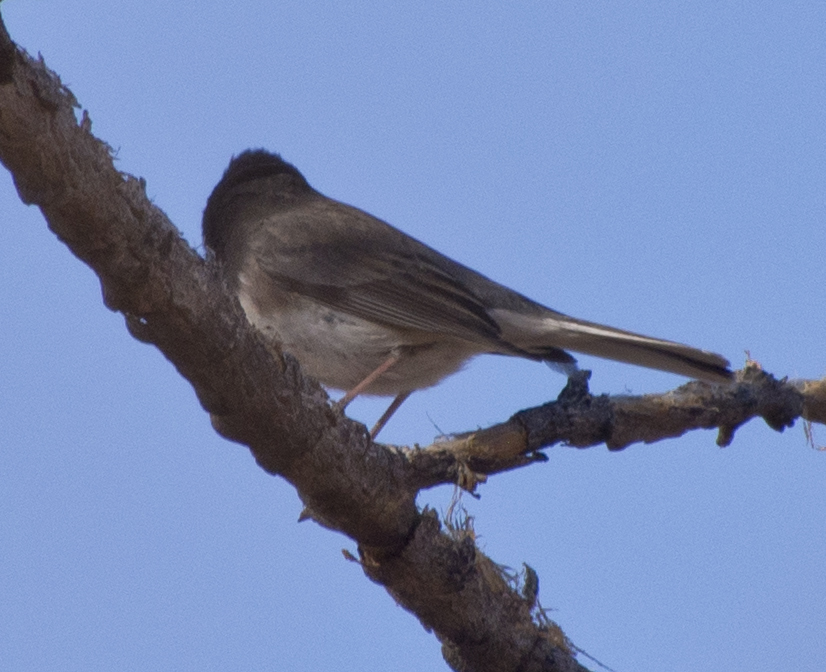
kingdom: Animalia
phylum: Chordata
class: Aves
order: Passeriformes
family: Passerellidae
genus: Junco
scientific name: Junco hyemalis
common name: Dark-eyed junco
